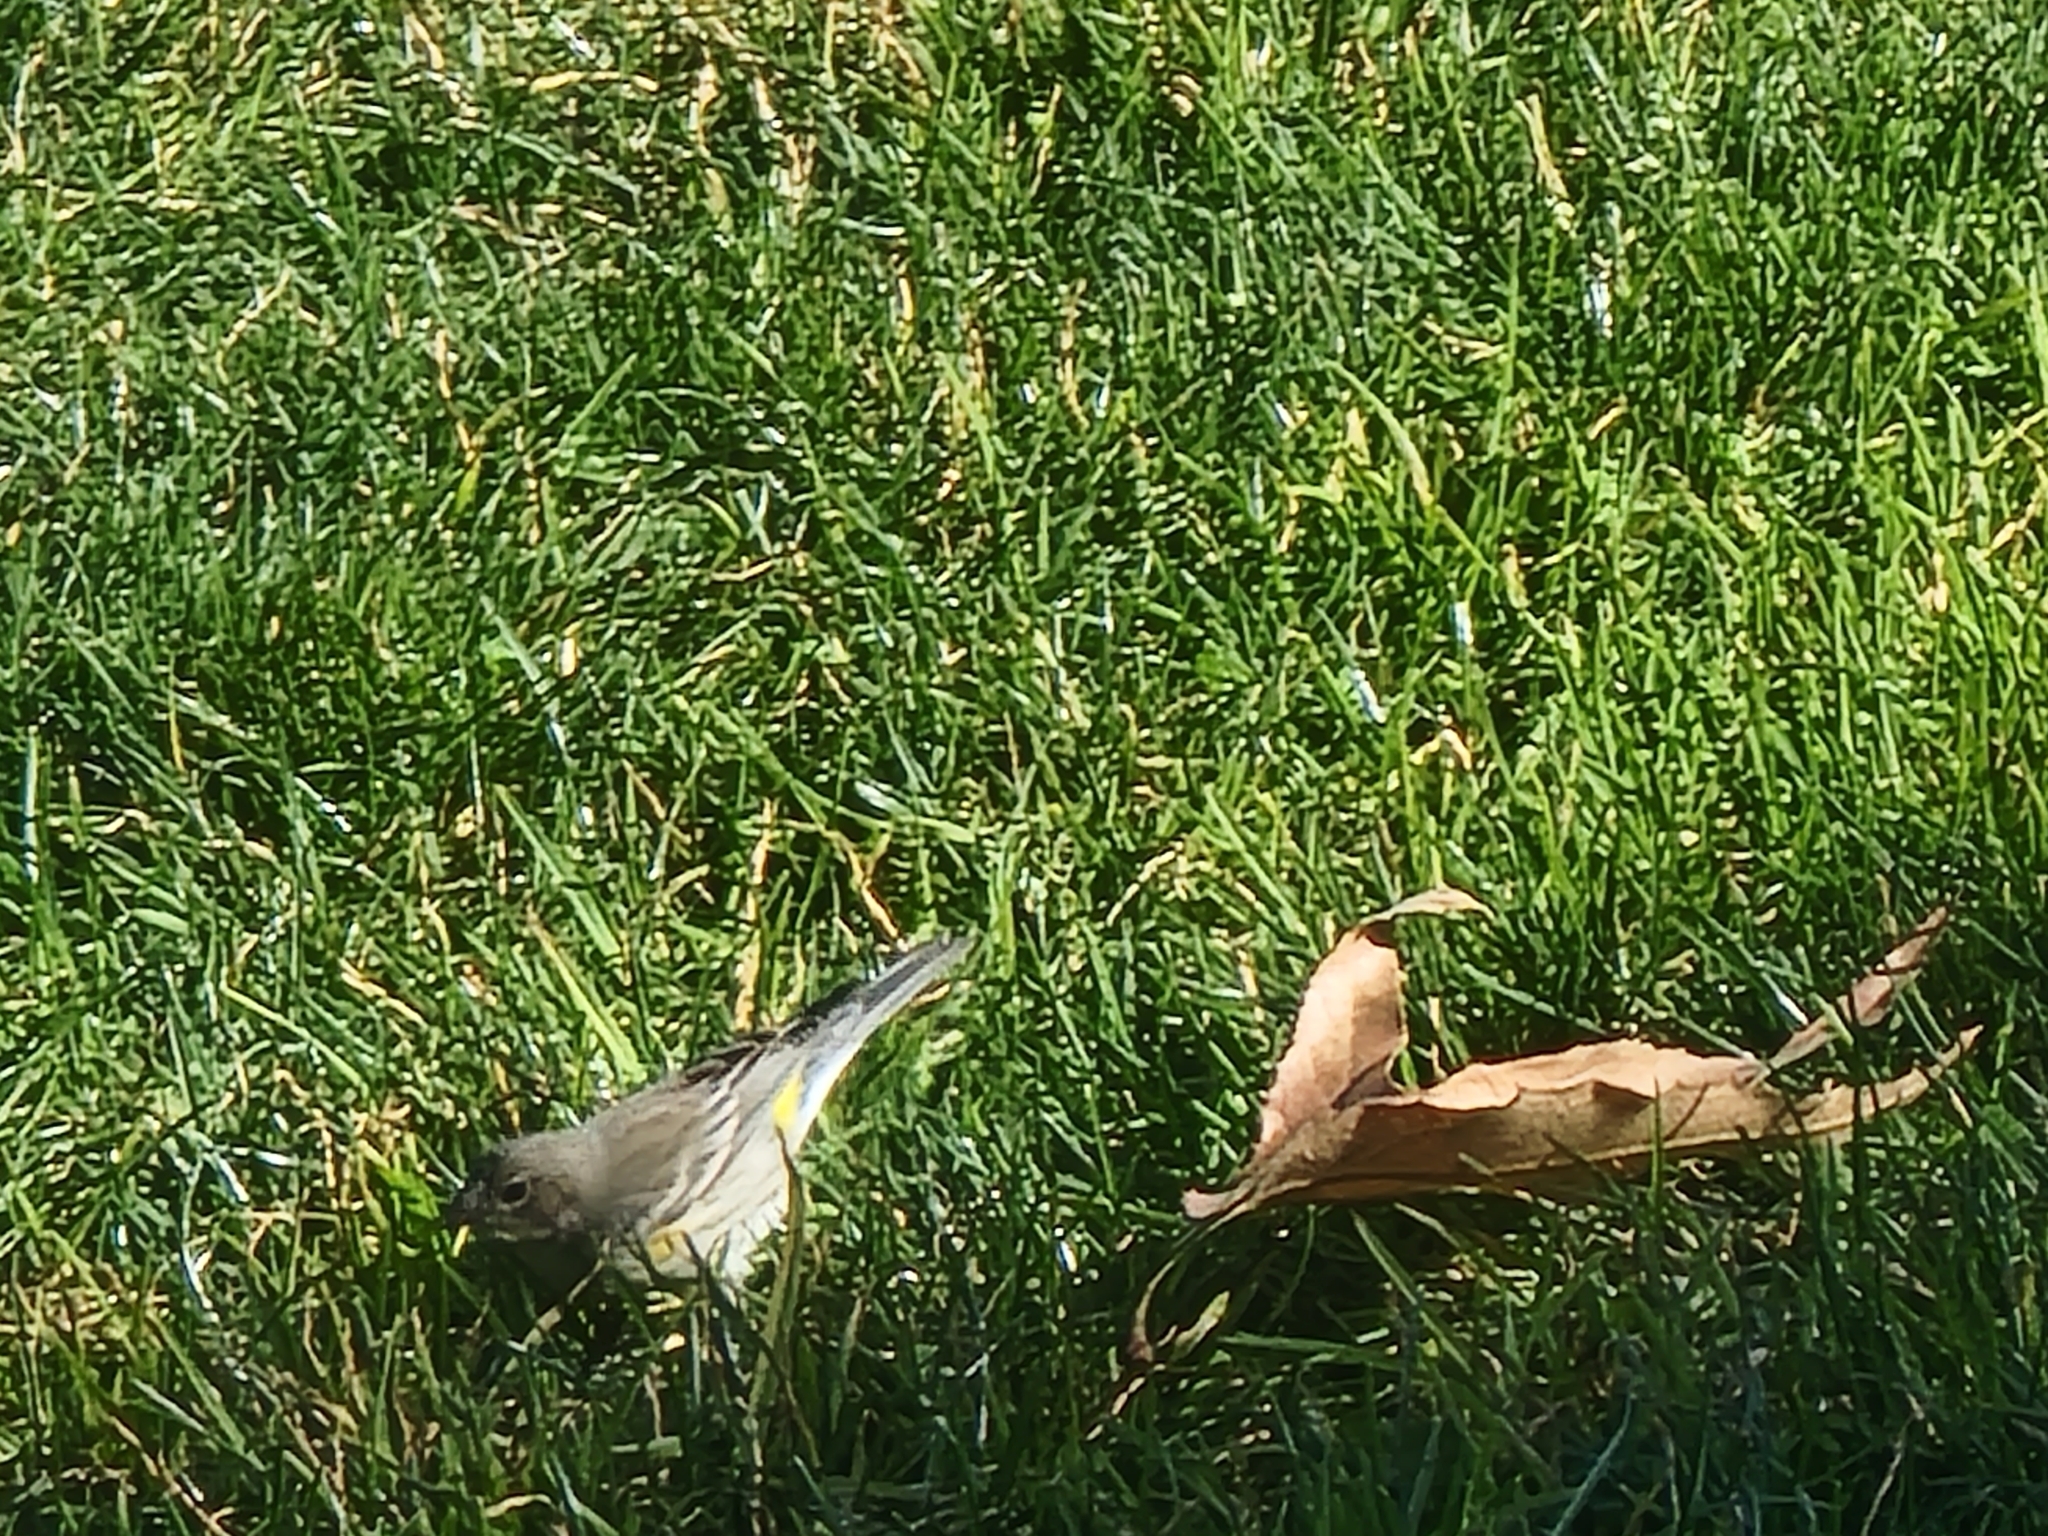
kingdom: Animalia
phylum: Chordata
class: Aves
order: Passeriformes
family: Parulidae
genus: Setophaga
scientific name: Setophaga coronata
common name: Myrtle warbler
